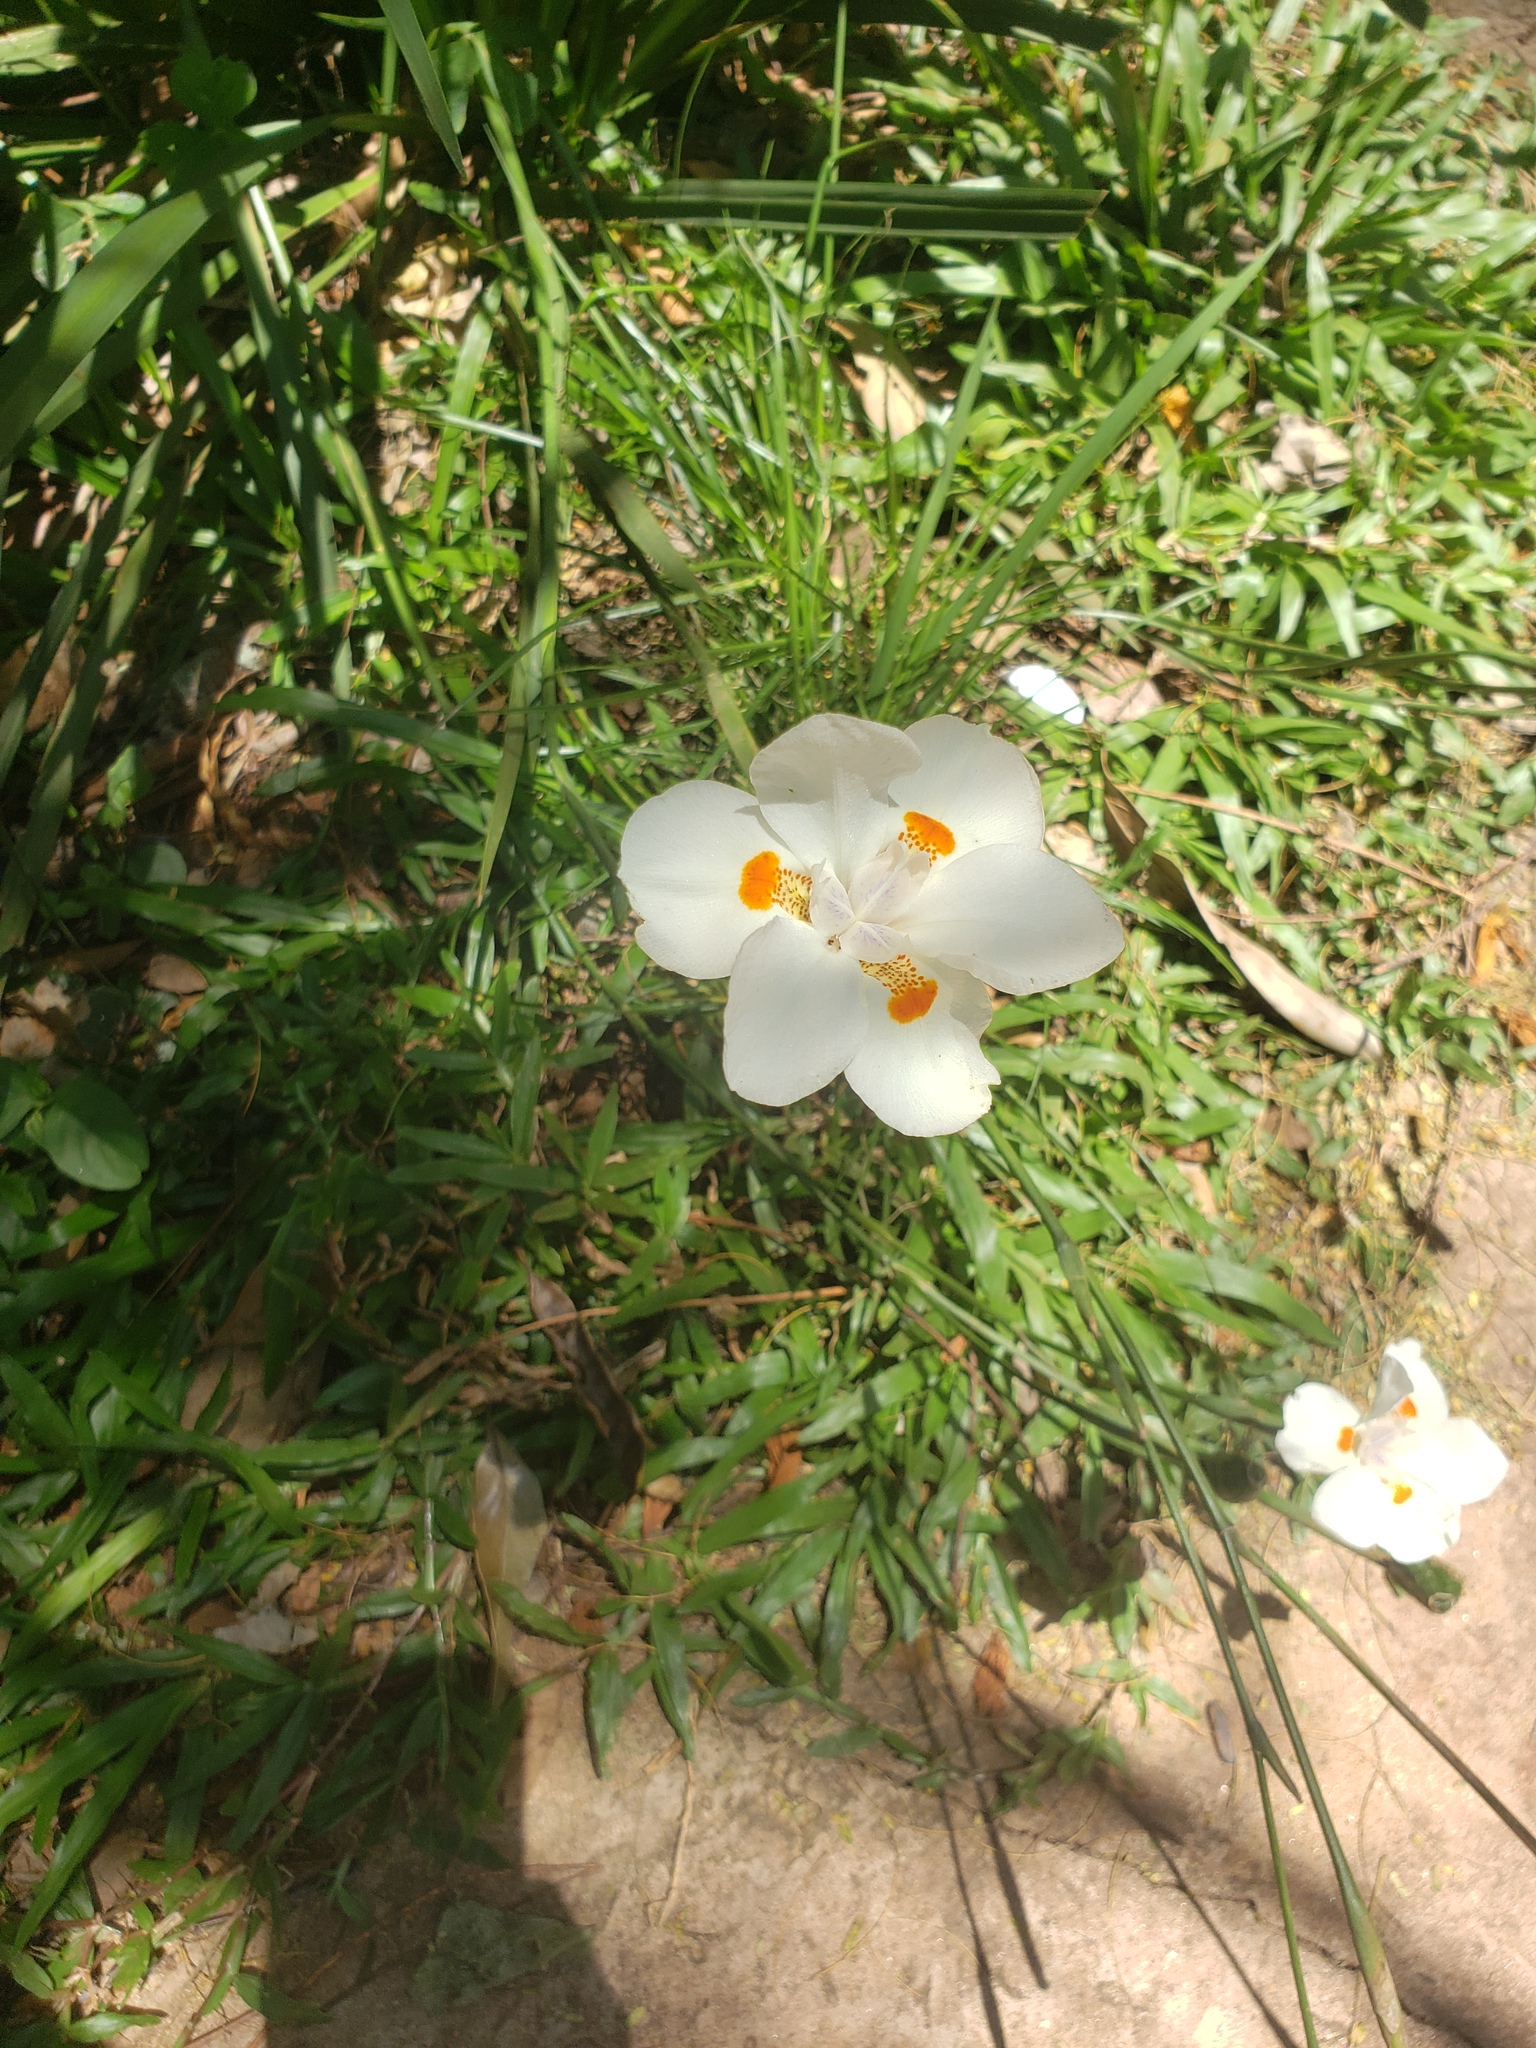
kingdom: Plantae
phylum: Tracheophyta
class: Liliopsida
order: Asparagales
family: Iridaceae
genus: Dietes
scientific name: Dietes
